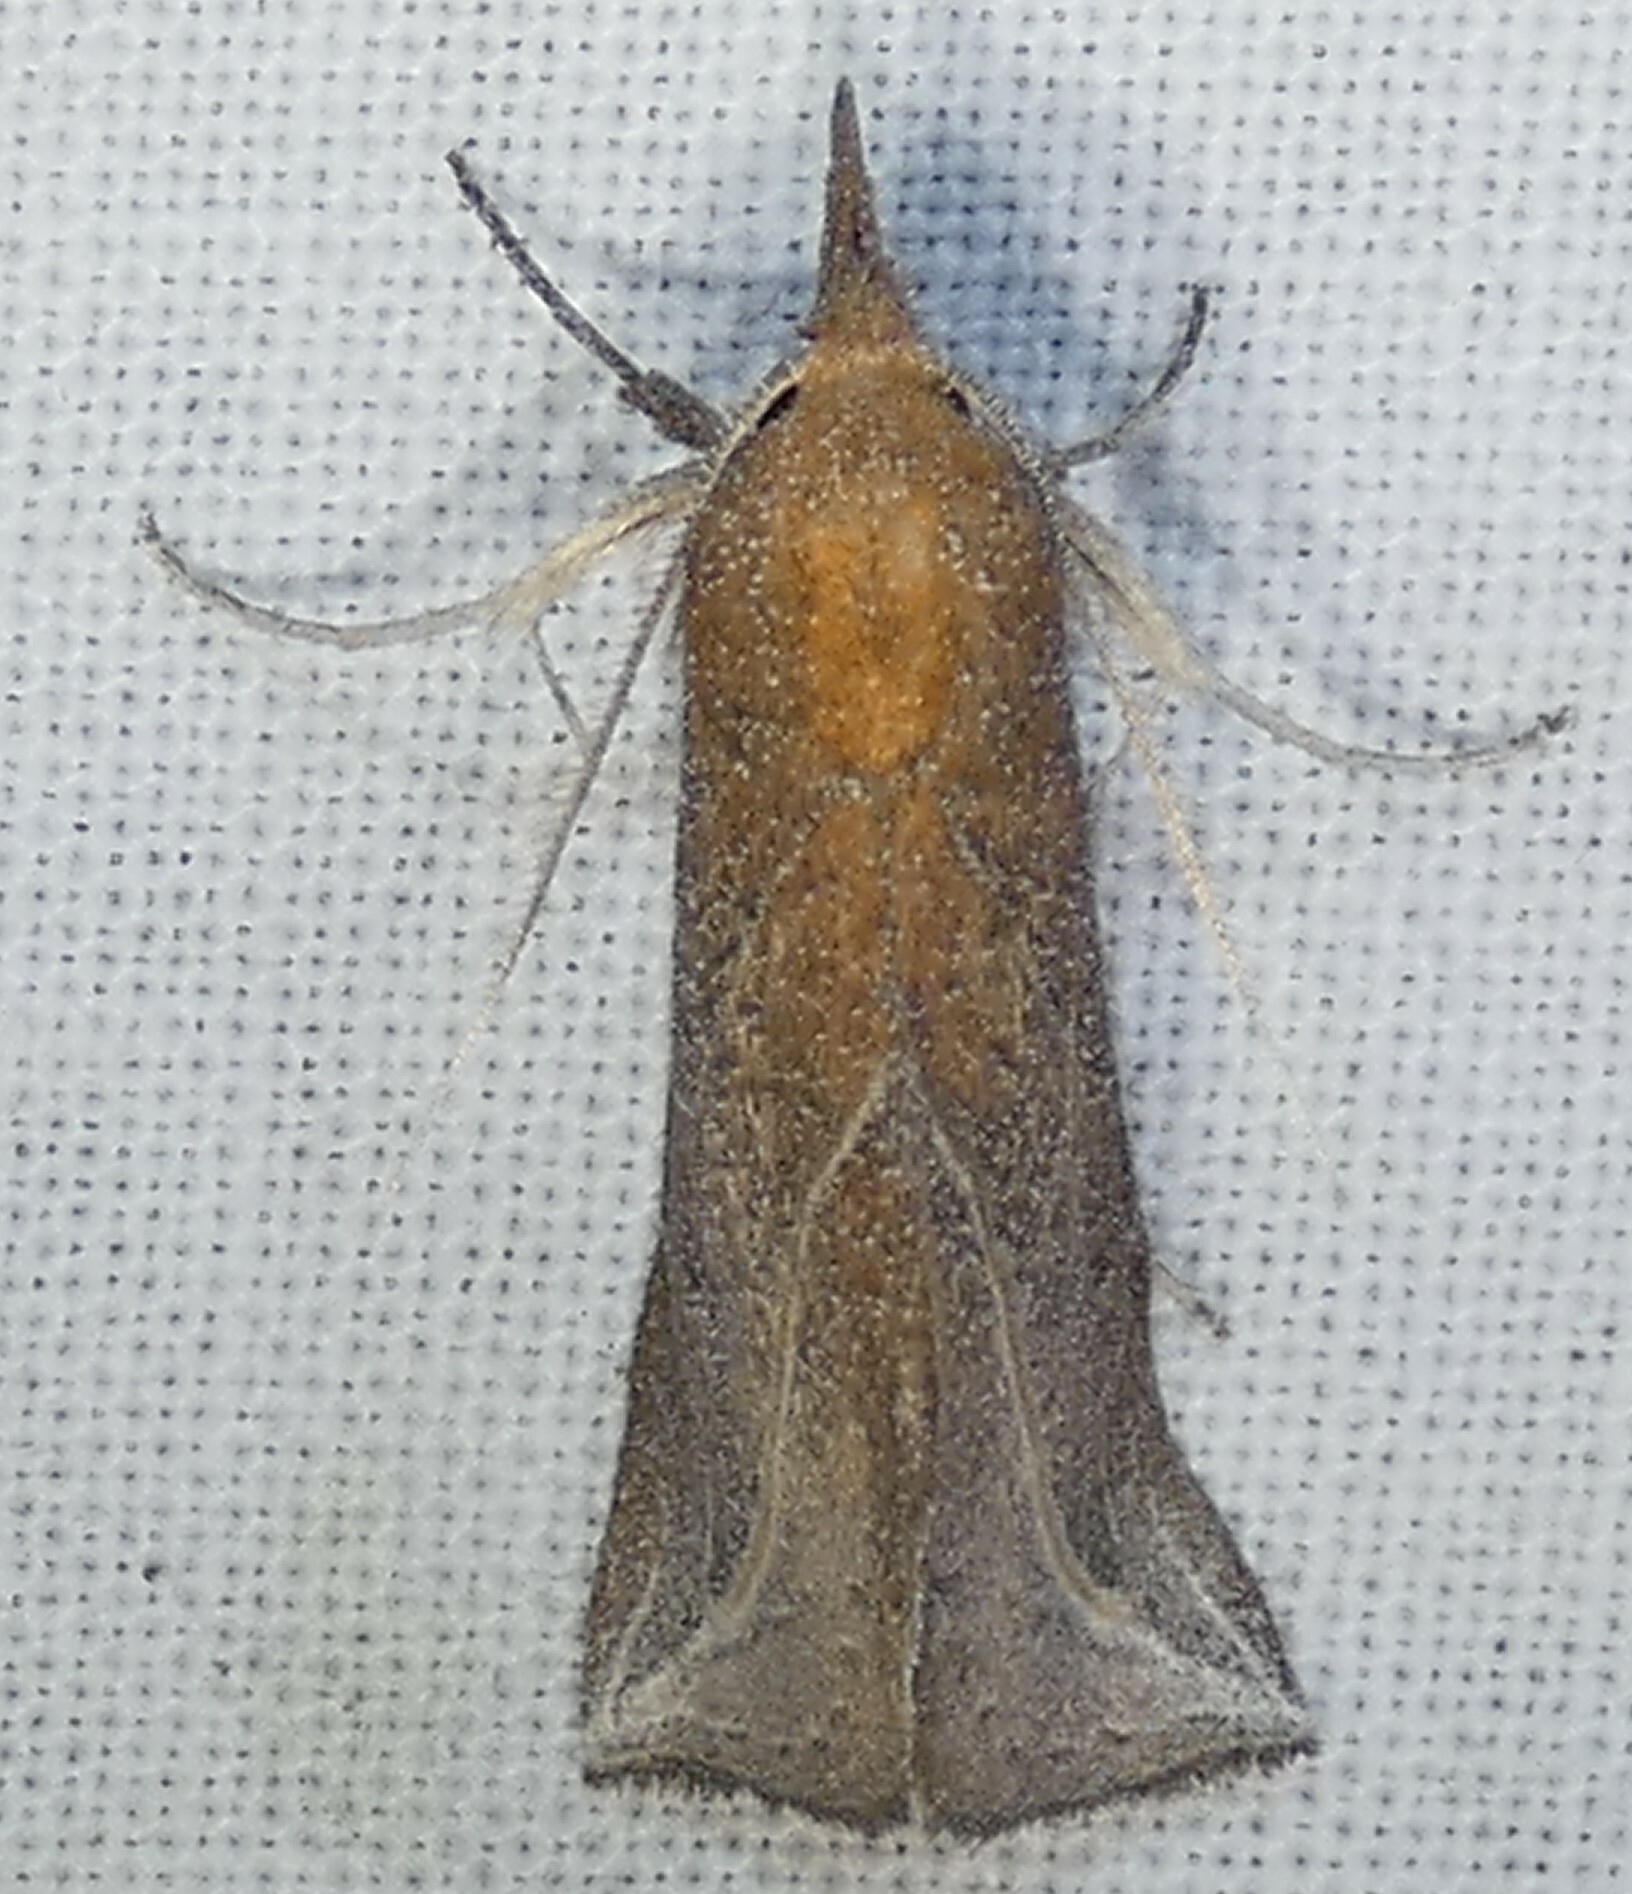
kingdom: Animalia
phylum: Arthropoda
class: Insecta
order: Lepidoptera
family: Erebidae
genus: Phyprosopus
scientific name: Phyprosopus callitrichoides
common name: Curved-lined owlet
